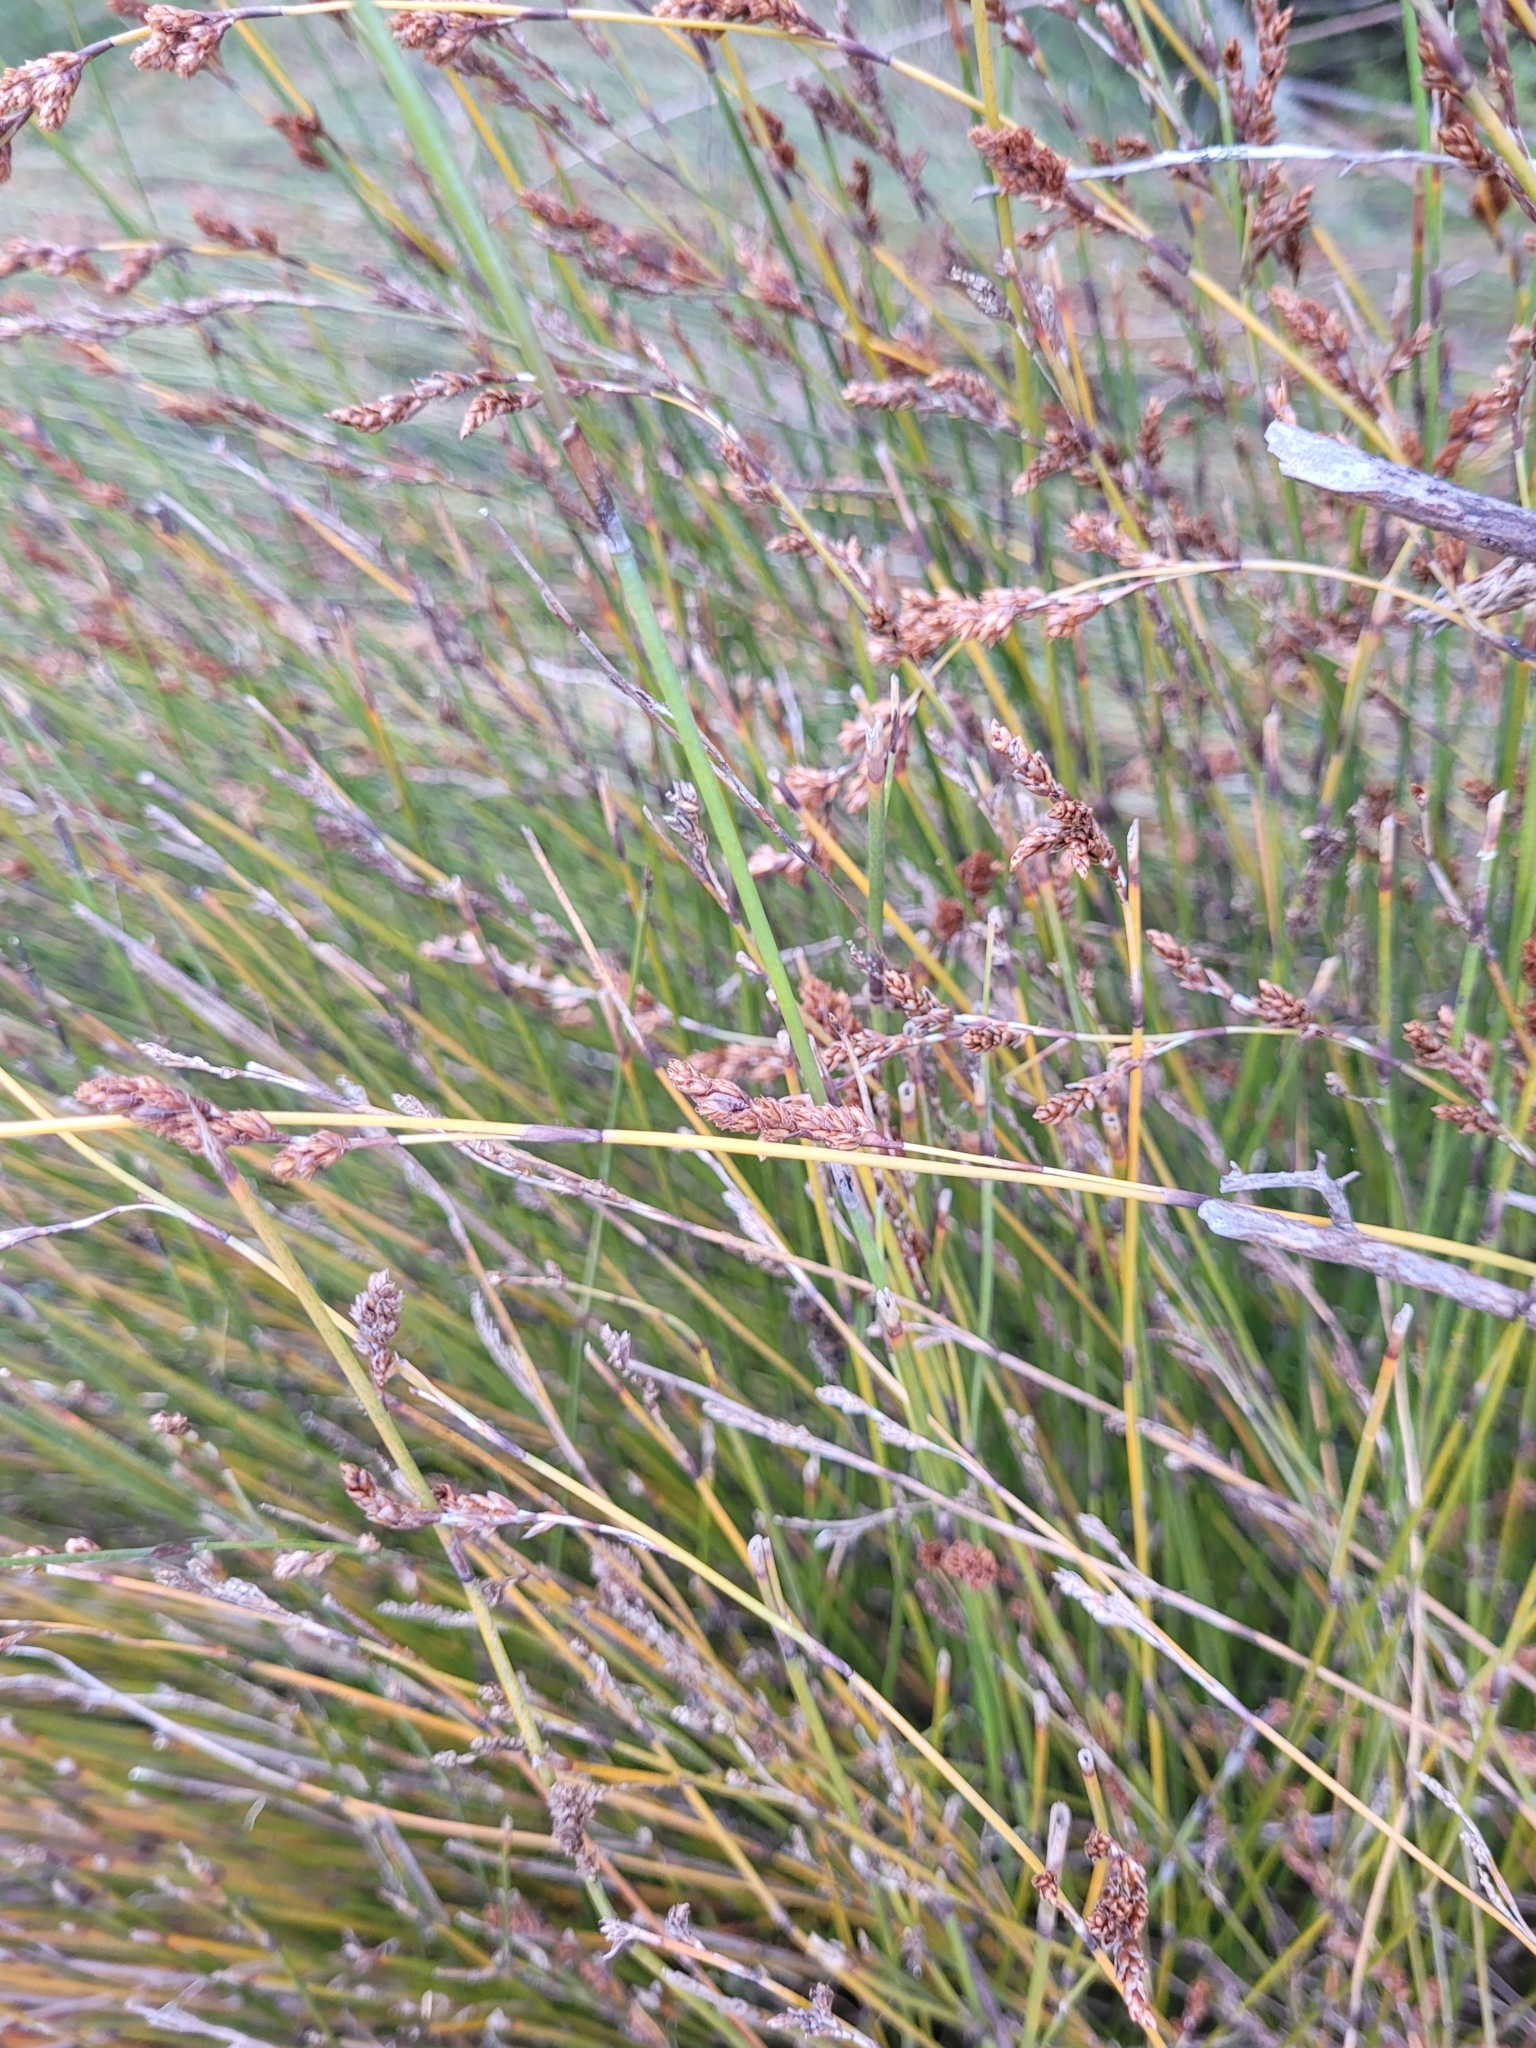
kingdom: Plantae
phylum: Tracheophyta
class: Liliopsida
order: Poales
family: Restionaceae
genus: Apodasmia
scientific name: Apodasmia similis
